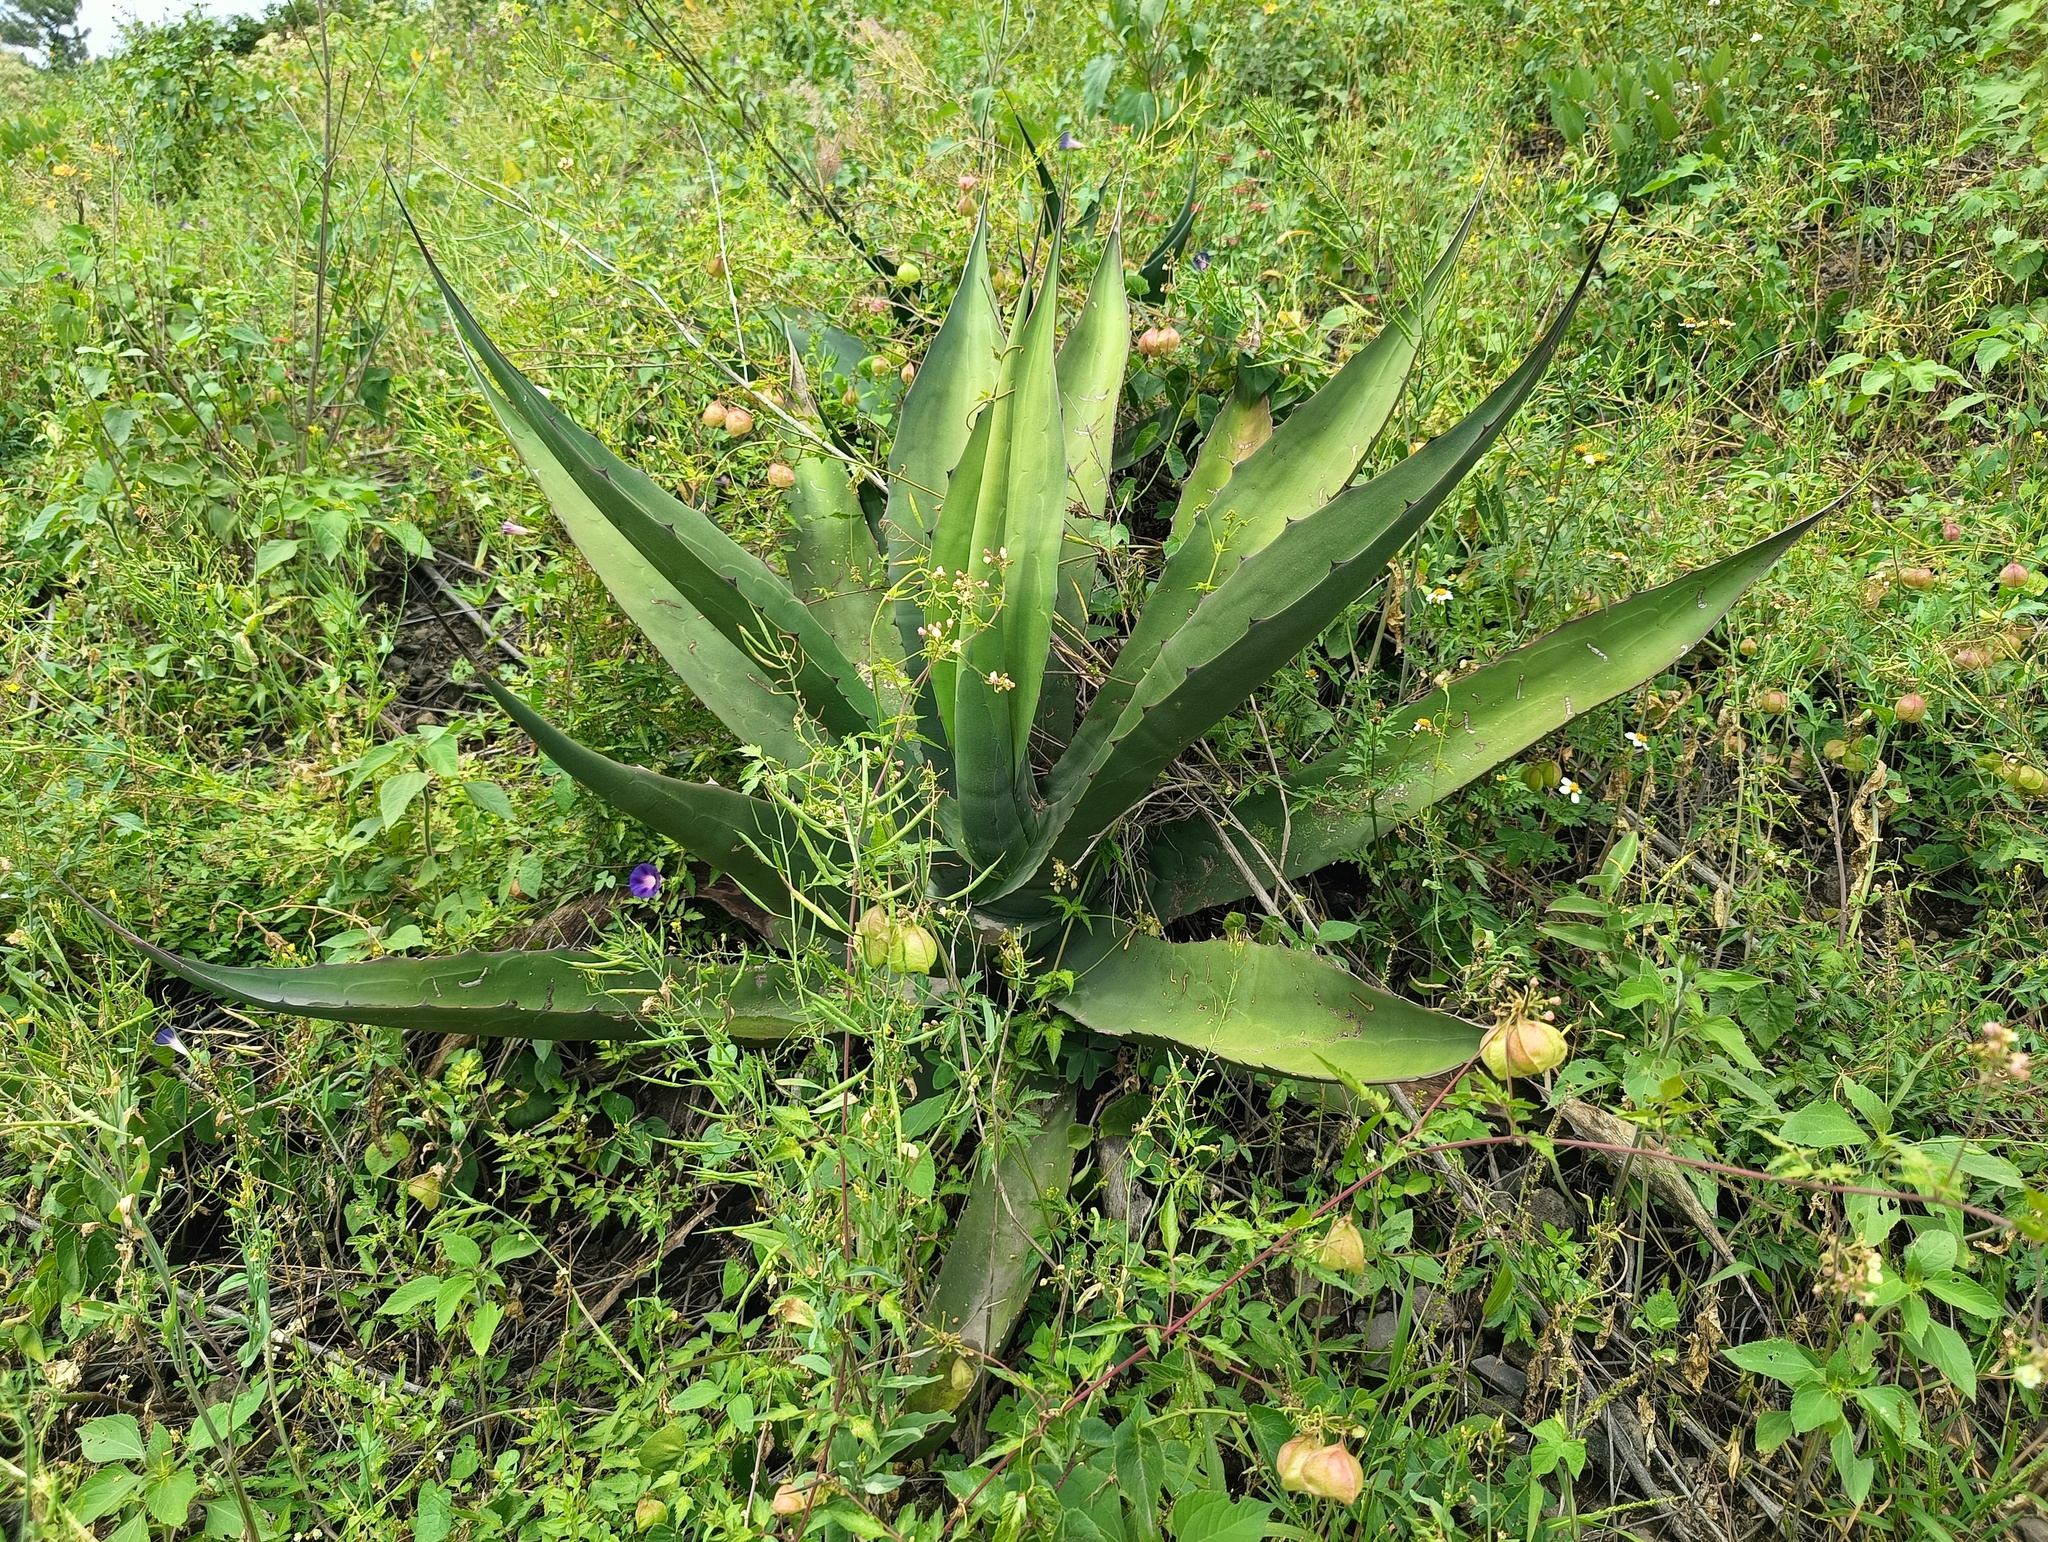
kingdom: Plantae
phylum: Tracheophyta
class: Liliopsida
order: Asparagales
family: Asparagaceae
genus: Agave
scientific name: Agave salmiana
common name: Pulque agave
